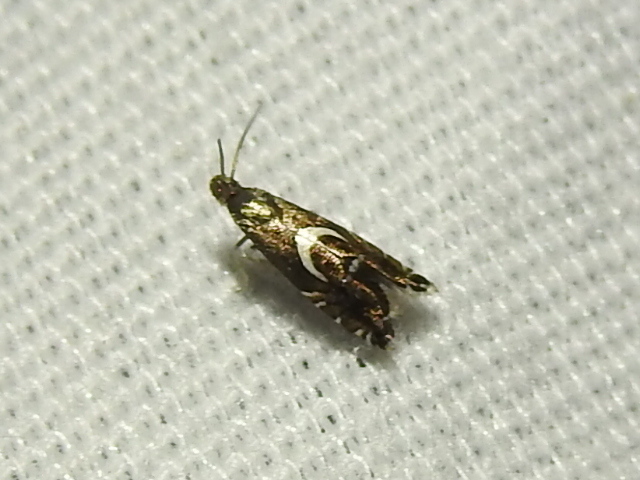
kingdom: Animalia
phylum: Arthropoda
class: Insecta
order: Lepidoptera
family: Glyphipterigidae
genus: Glyphipterix
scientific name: Glyphipterix Diploschizia impigritella
